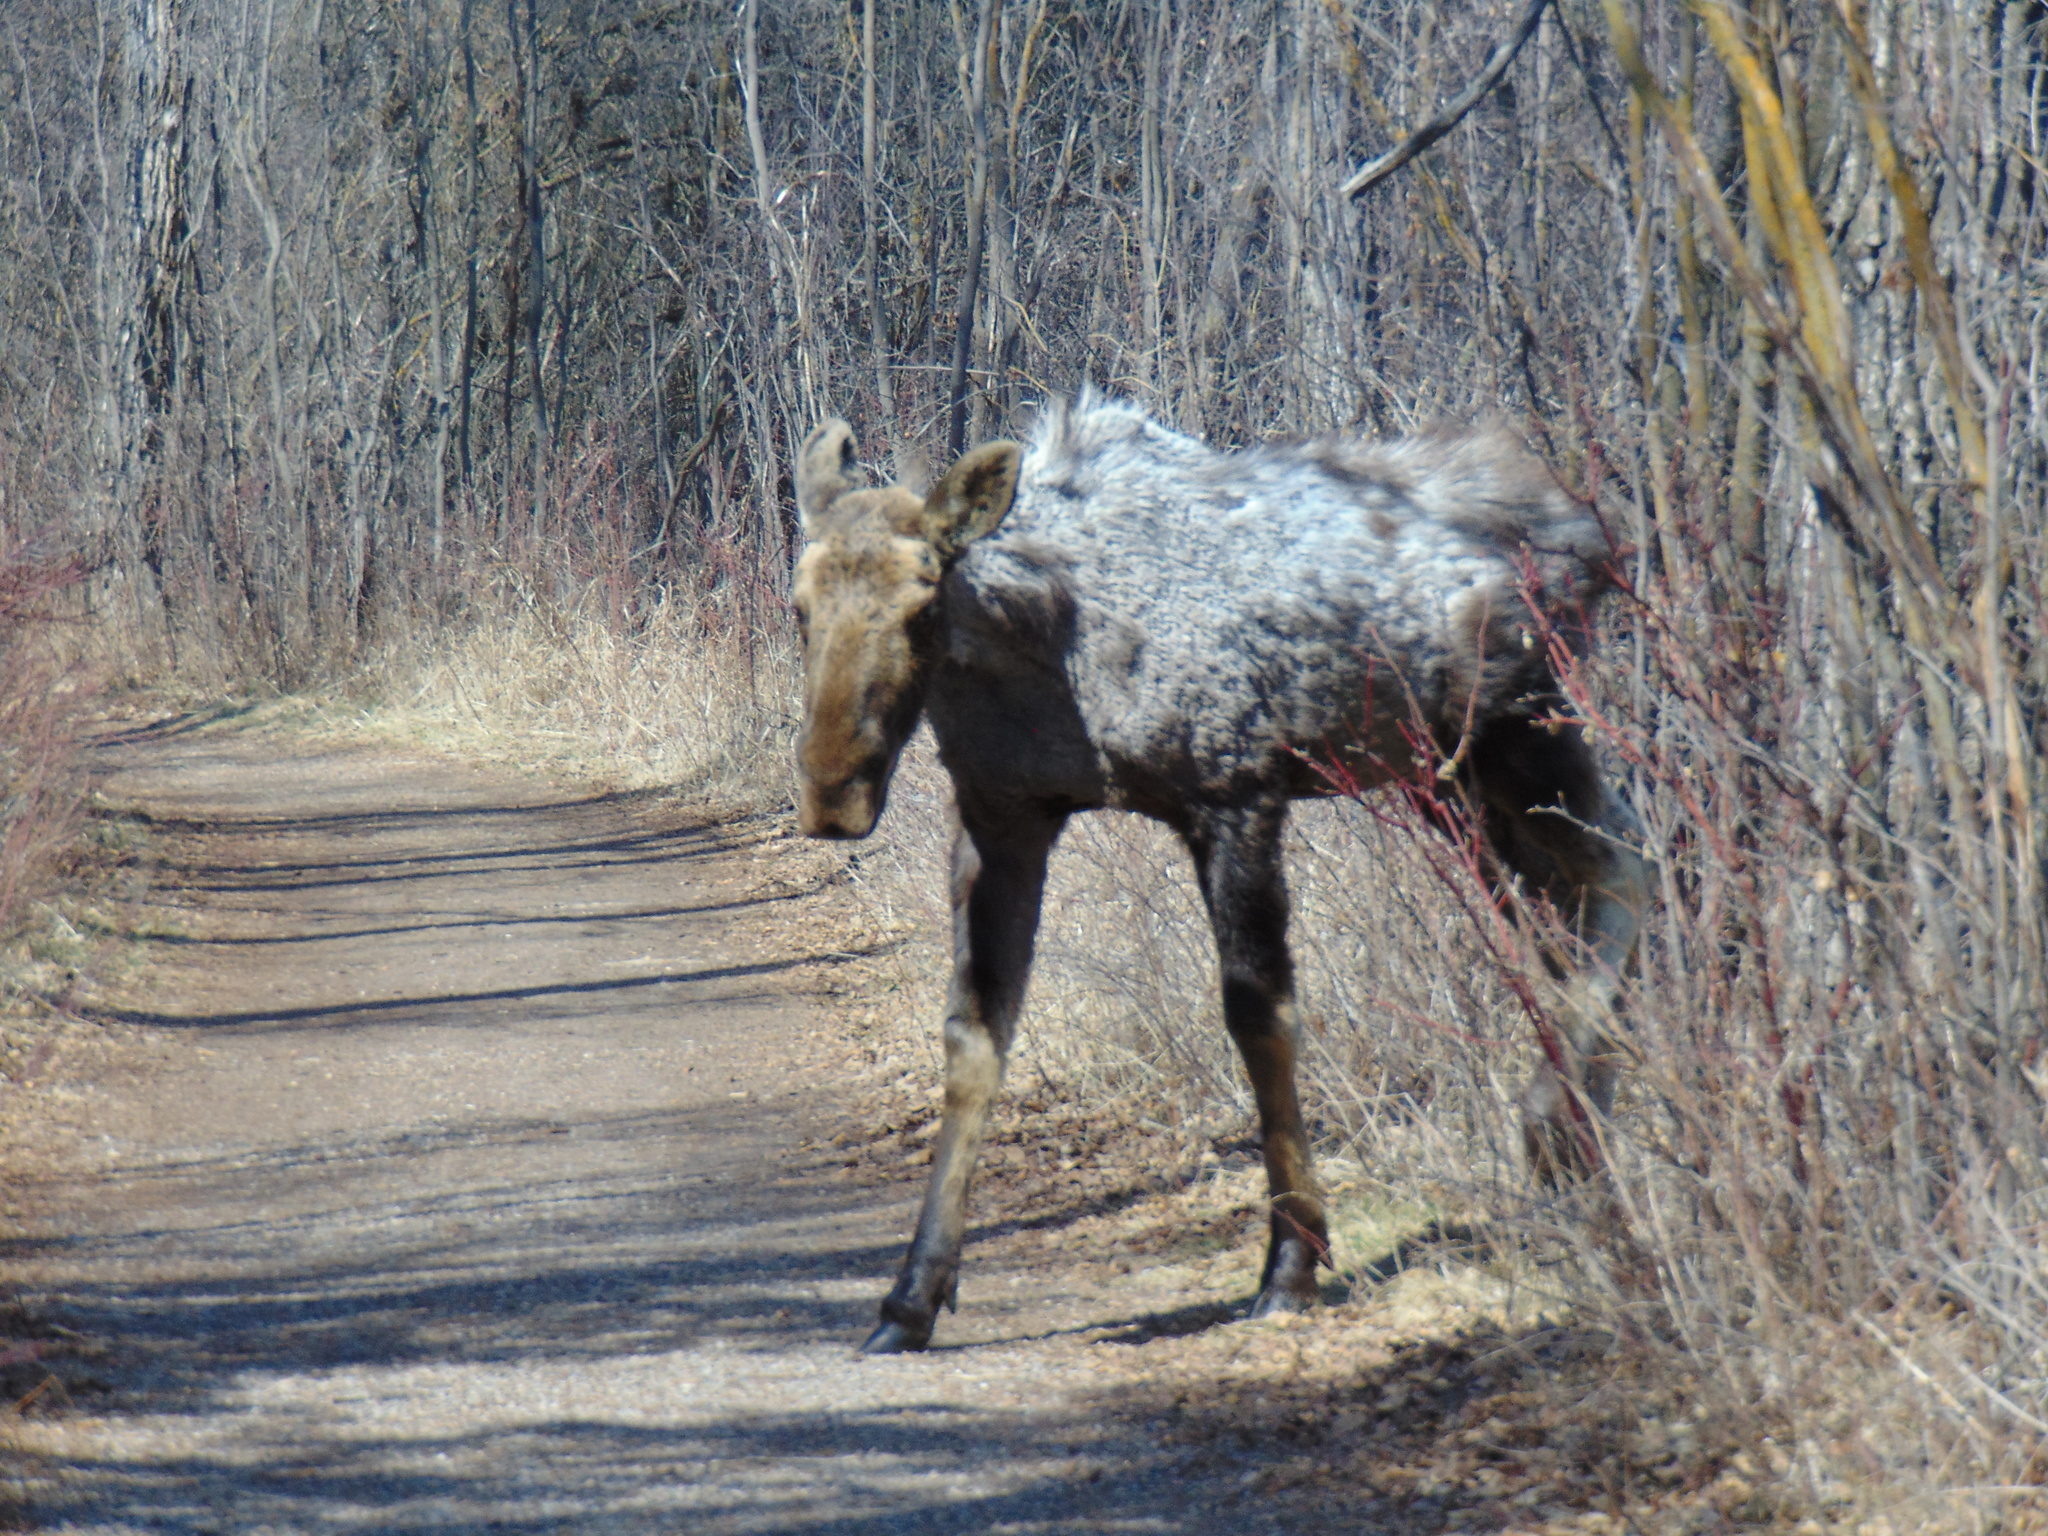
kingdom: Animalia
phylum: Chordata
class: Mammalia
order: Artiodactyla
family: Cervidae
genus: Alces
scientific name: Alces alces
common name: Moose
